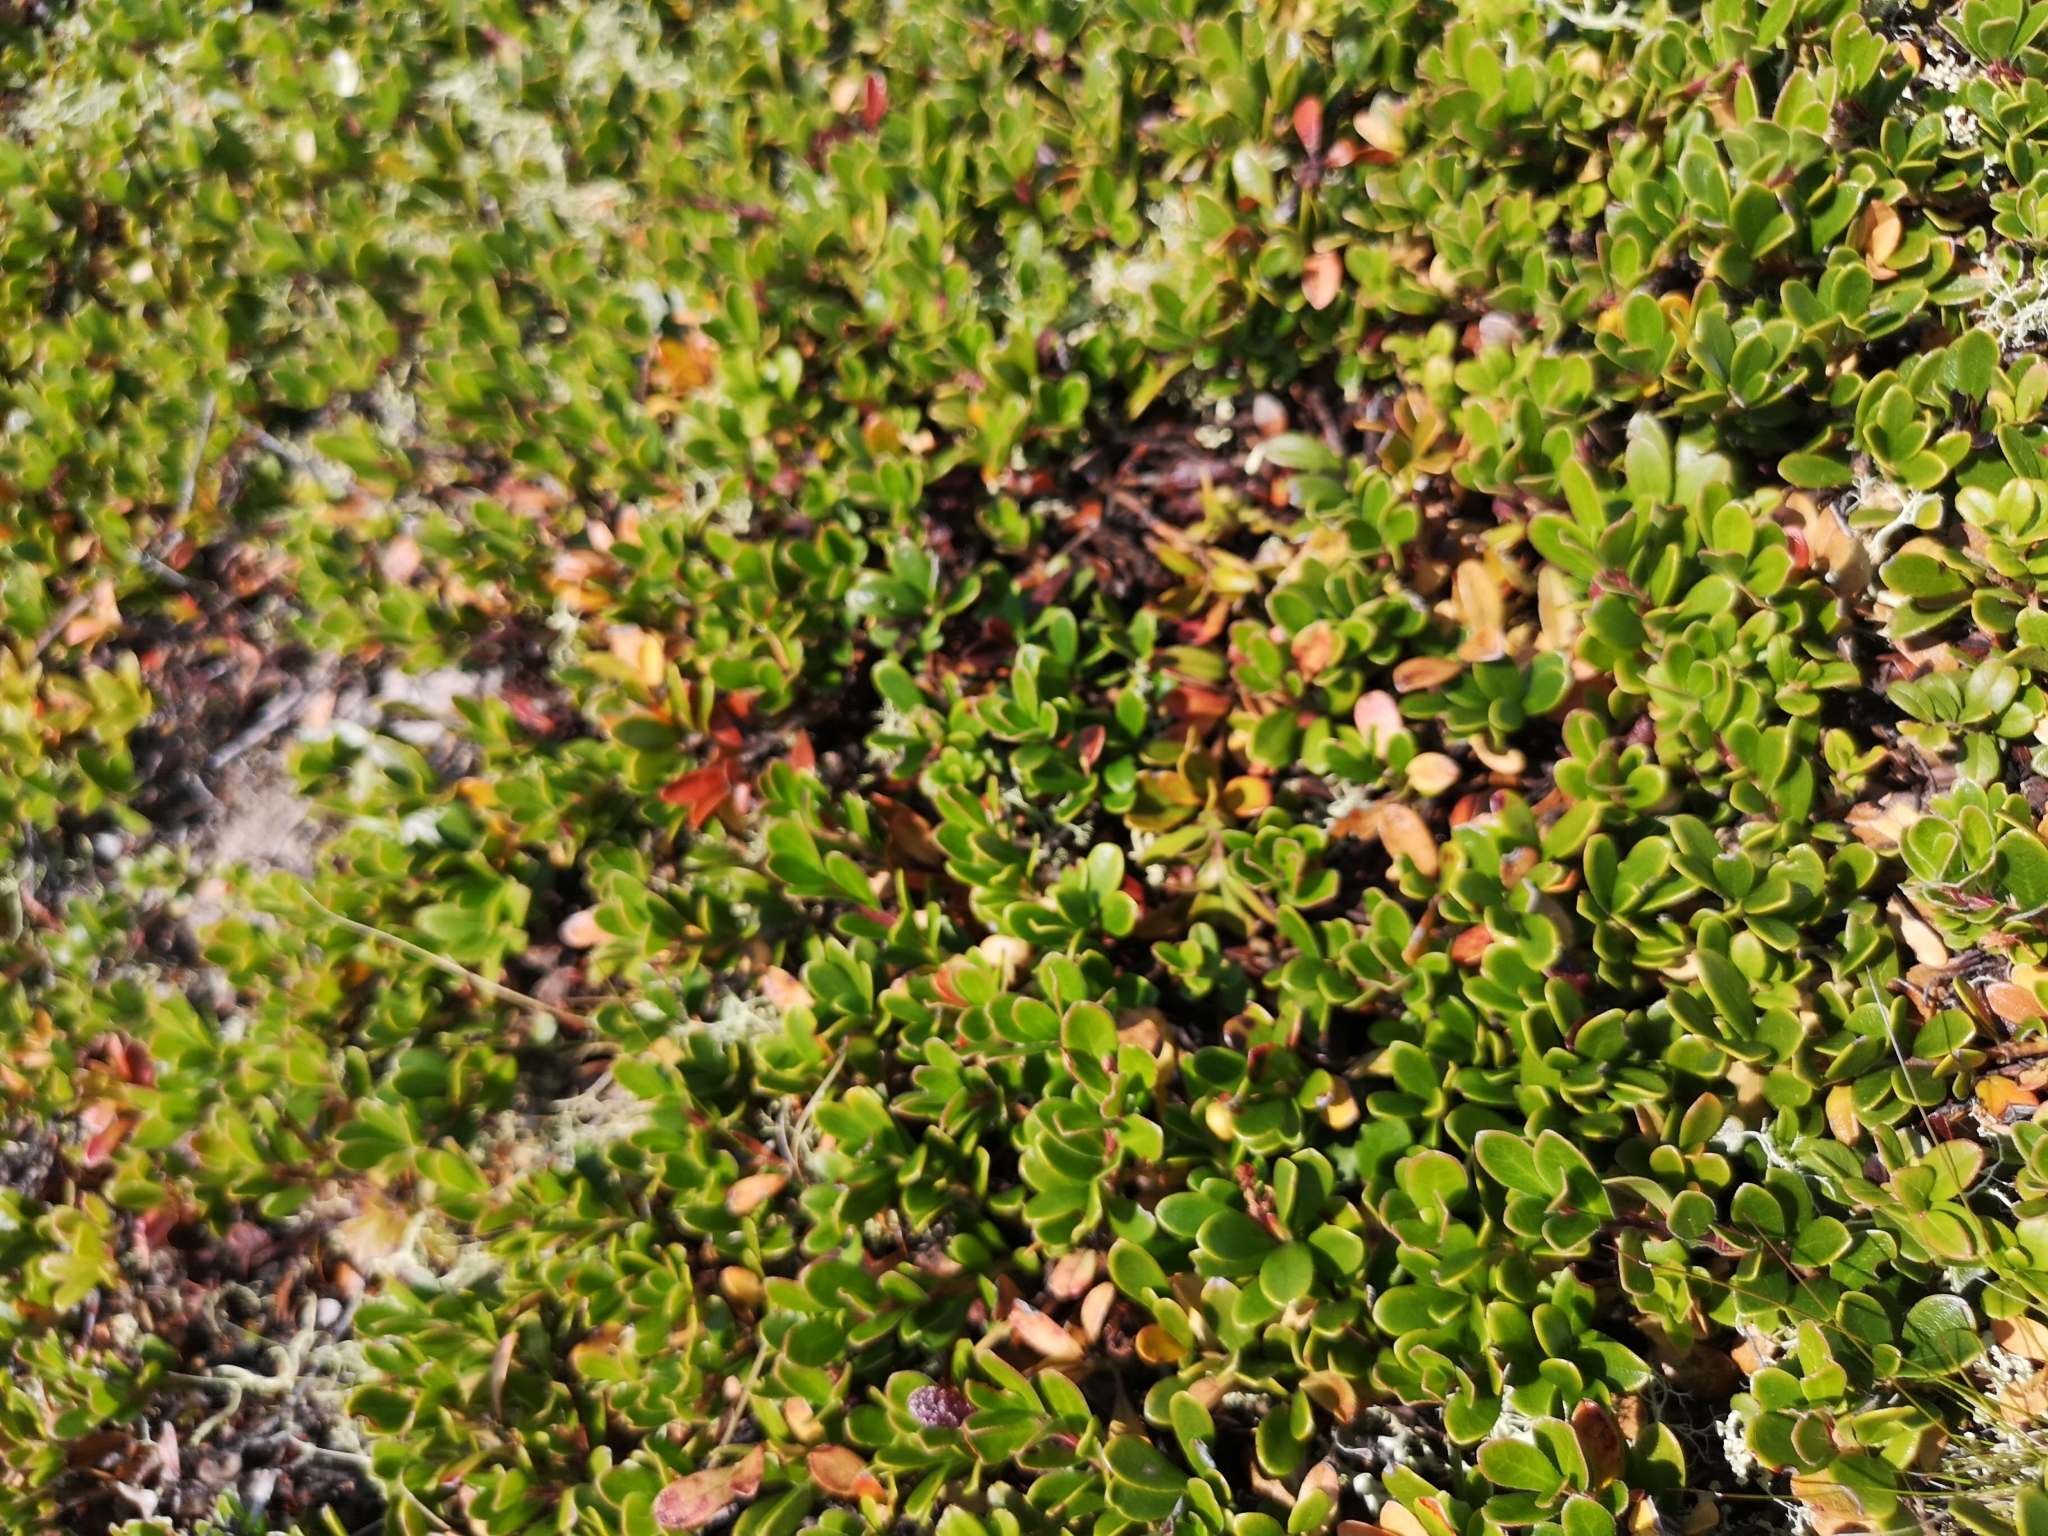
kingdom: Plantae
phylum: Tracheophyta
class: Magnoliopsida
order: Ericales
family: Ericaceae
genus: Arctostaphylos
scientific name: Arctostaphylos uva-ursi
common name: Bearberry
